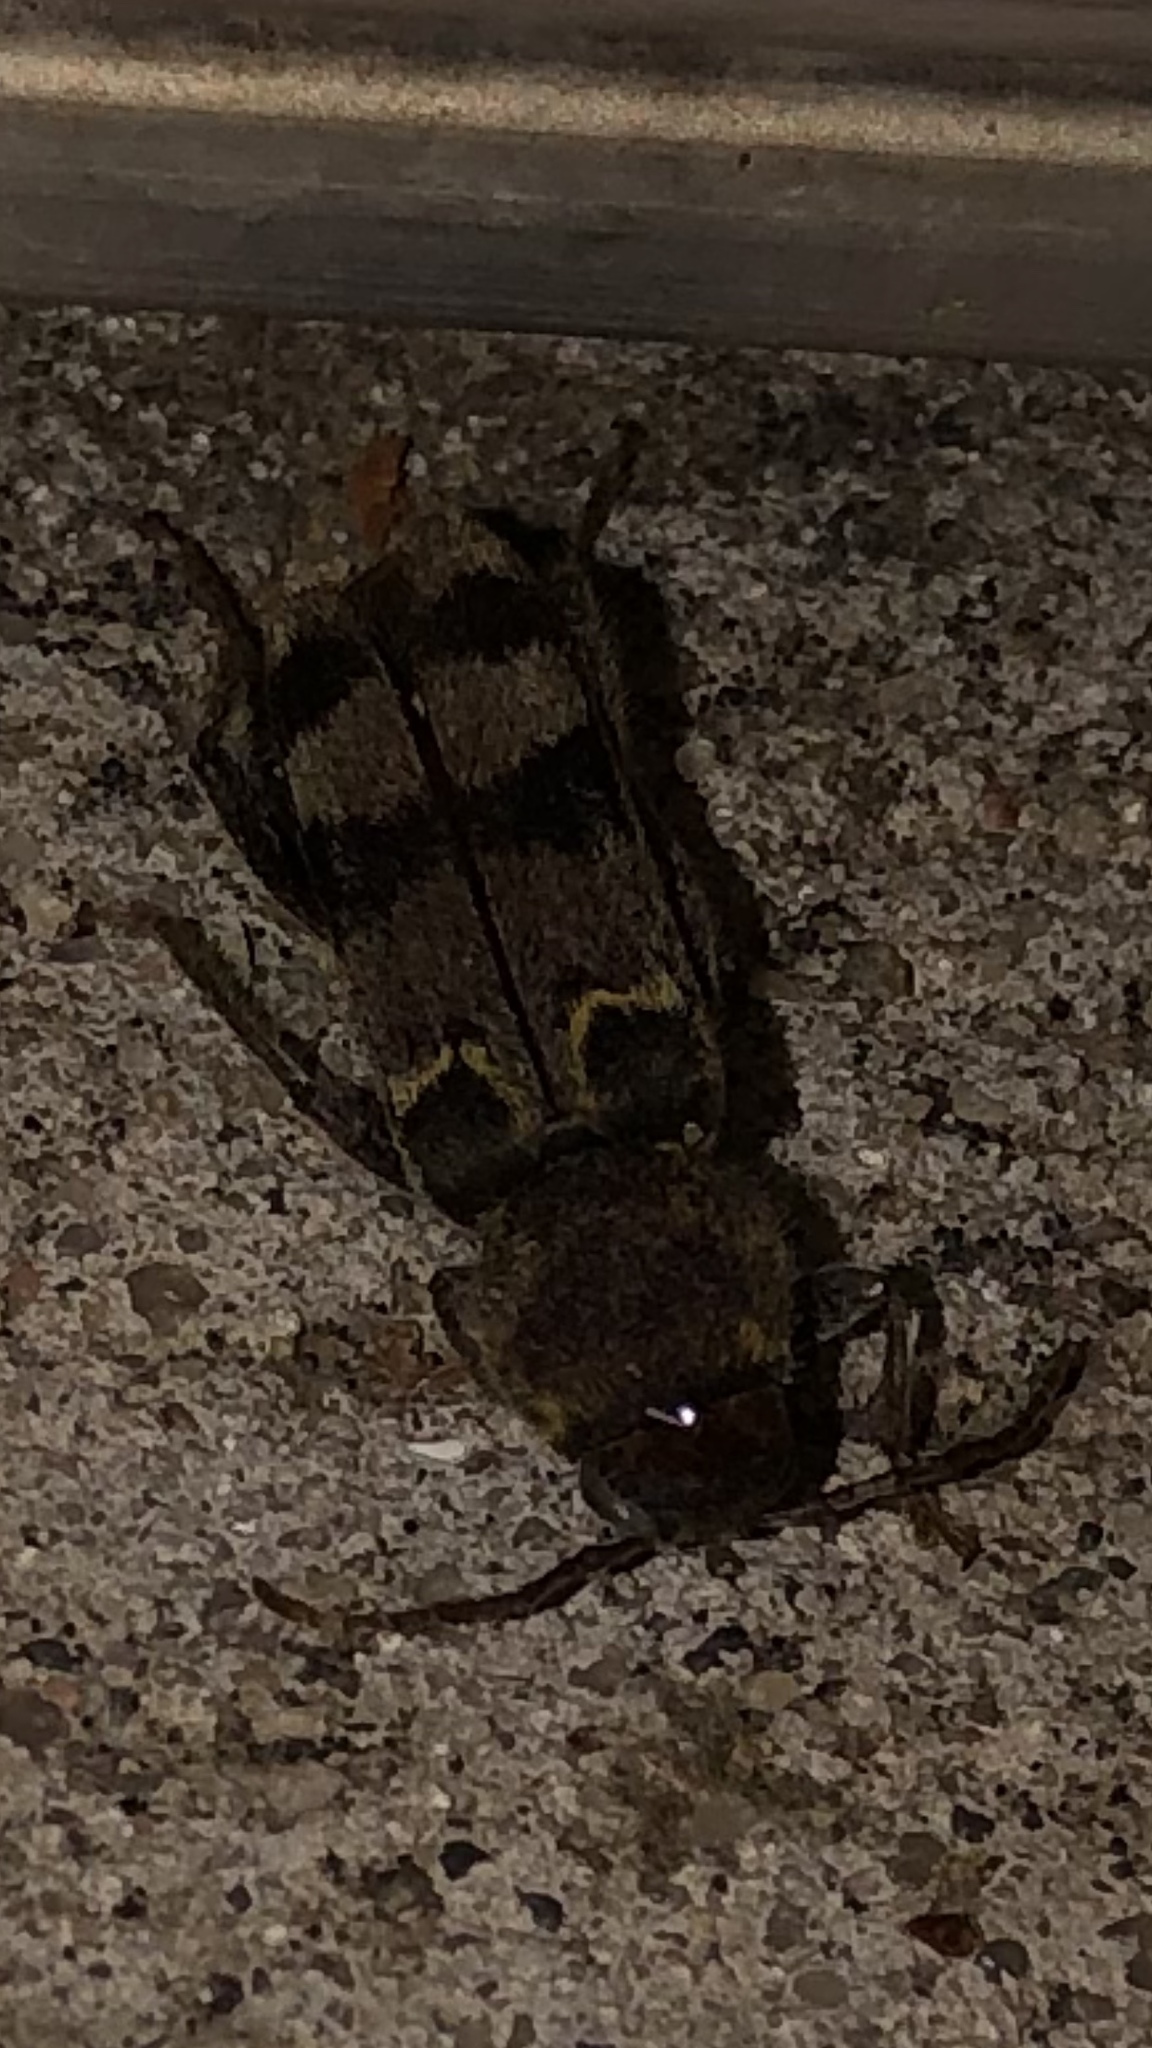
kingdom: Animalia
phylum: Arthropoda
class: Insecta
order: Coleoptera
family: Cerambycidae
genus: Xylotrechus
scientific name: Xylotrechus colonus
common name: Long-horned beetle
